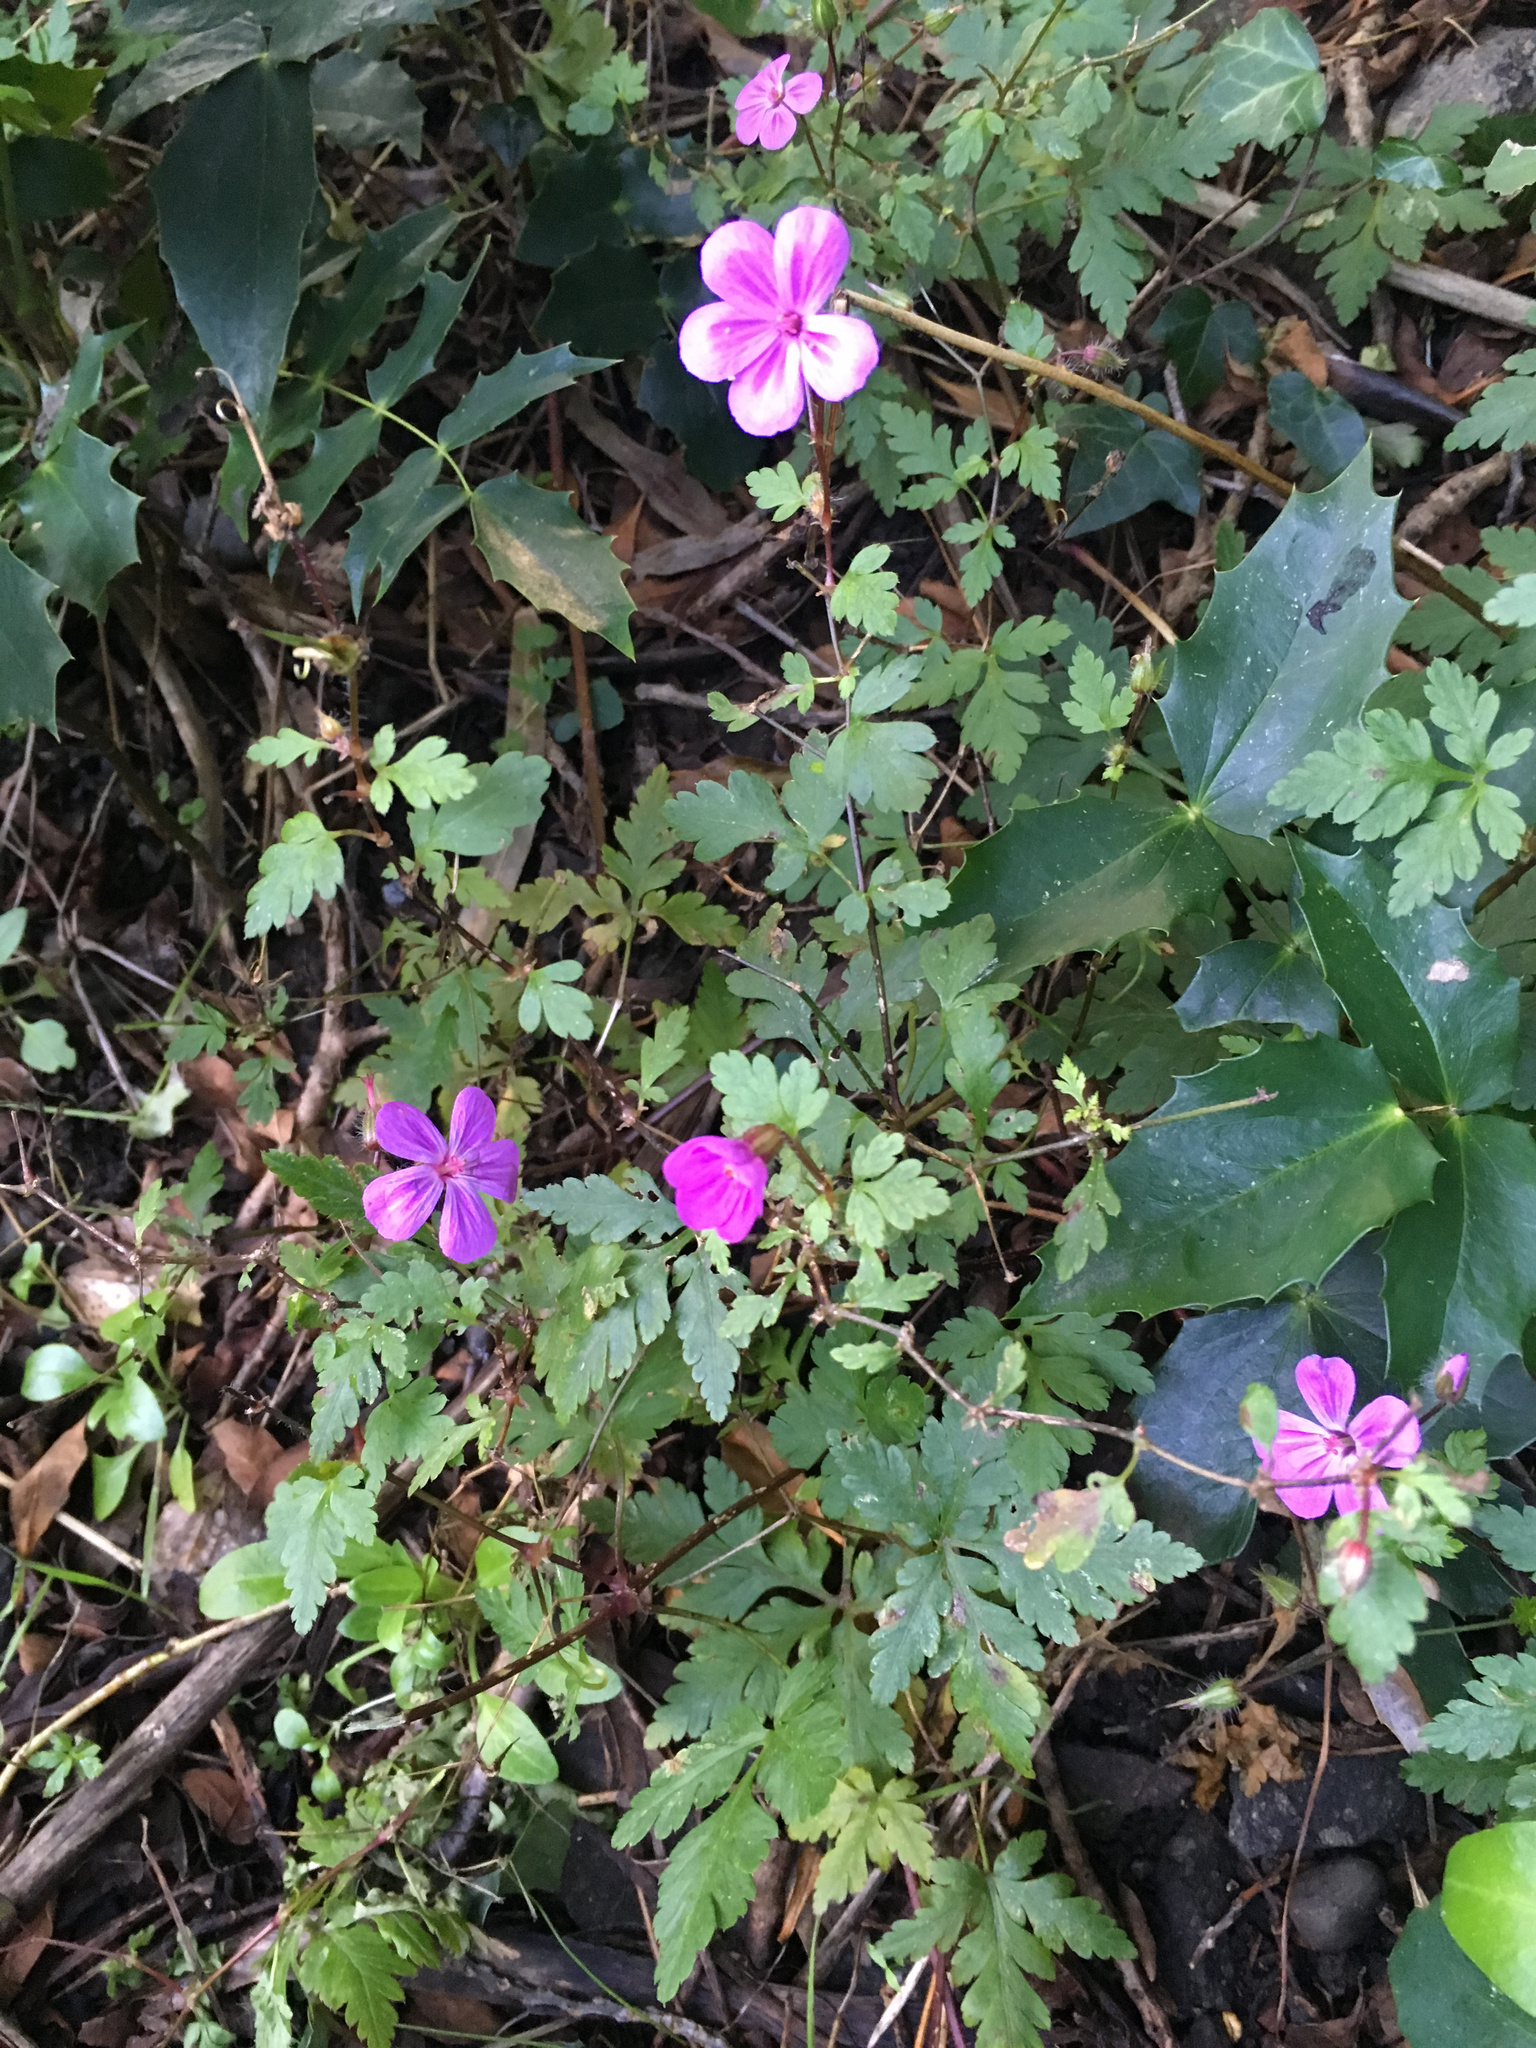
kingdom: Plantae
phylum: Tracheophyta
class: Magnoliopsida
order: Geraniales
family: Geraniaceae
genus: Geranium
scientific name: Geranium yeoi
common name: Greater herb robert
